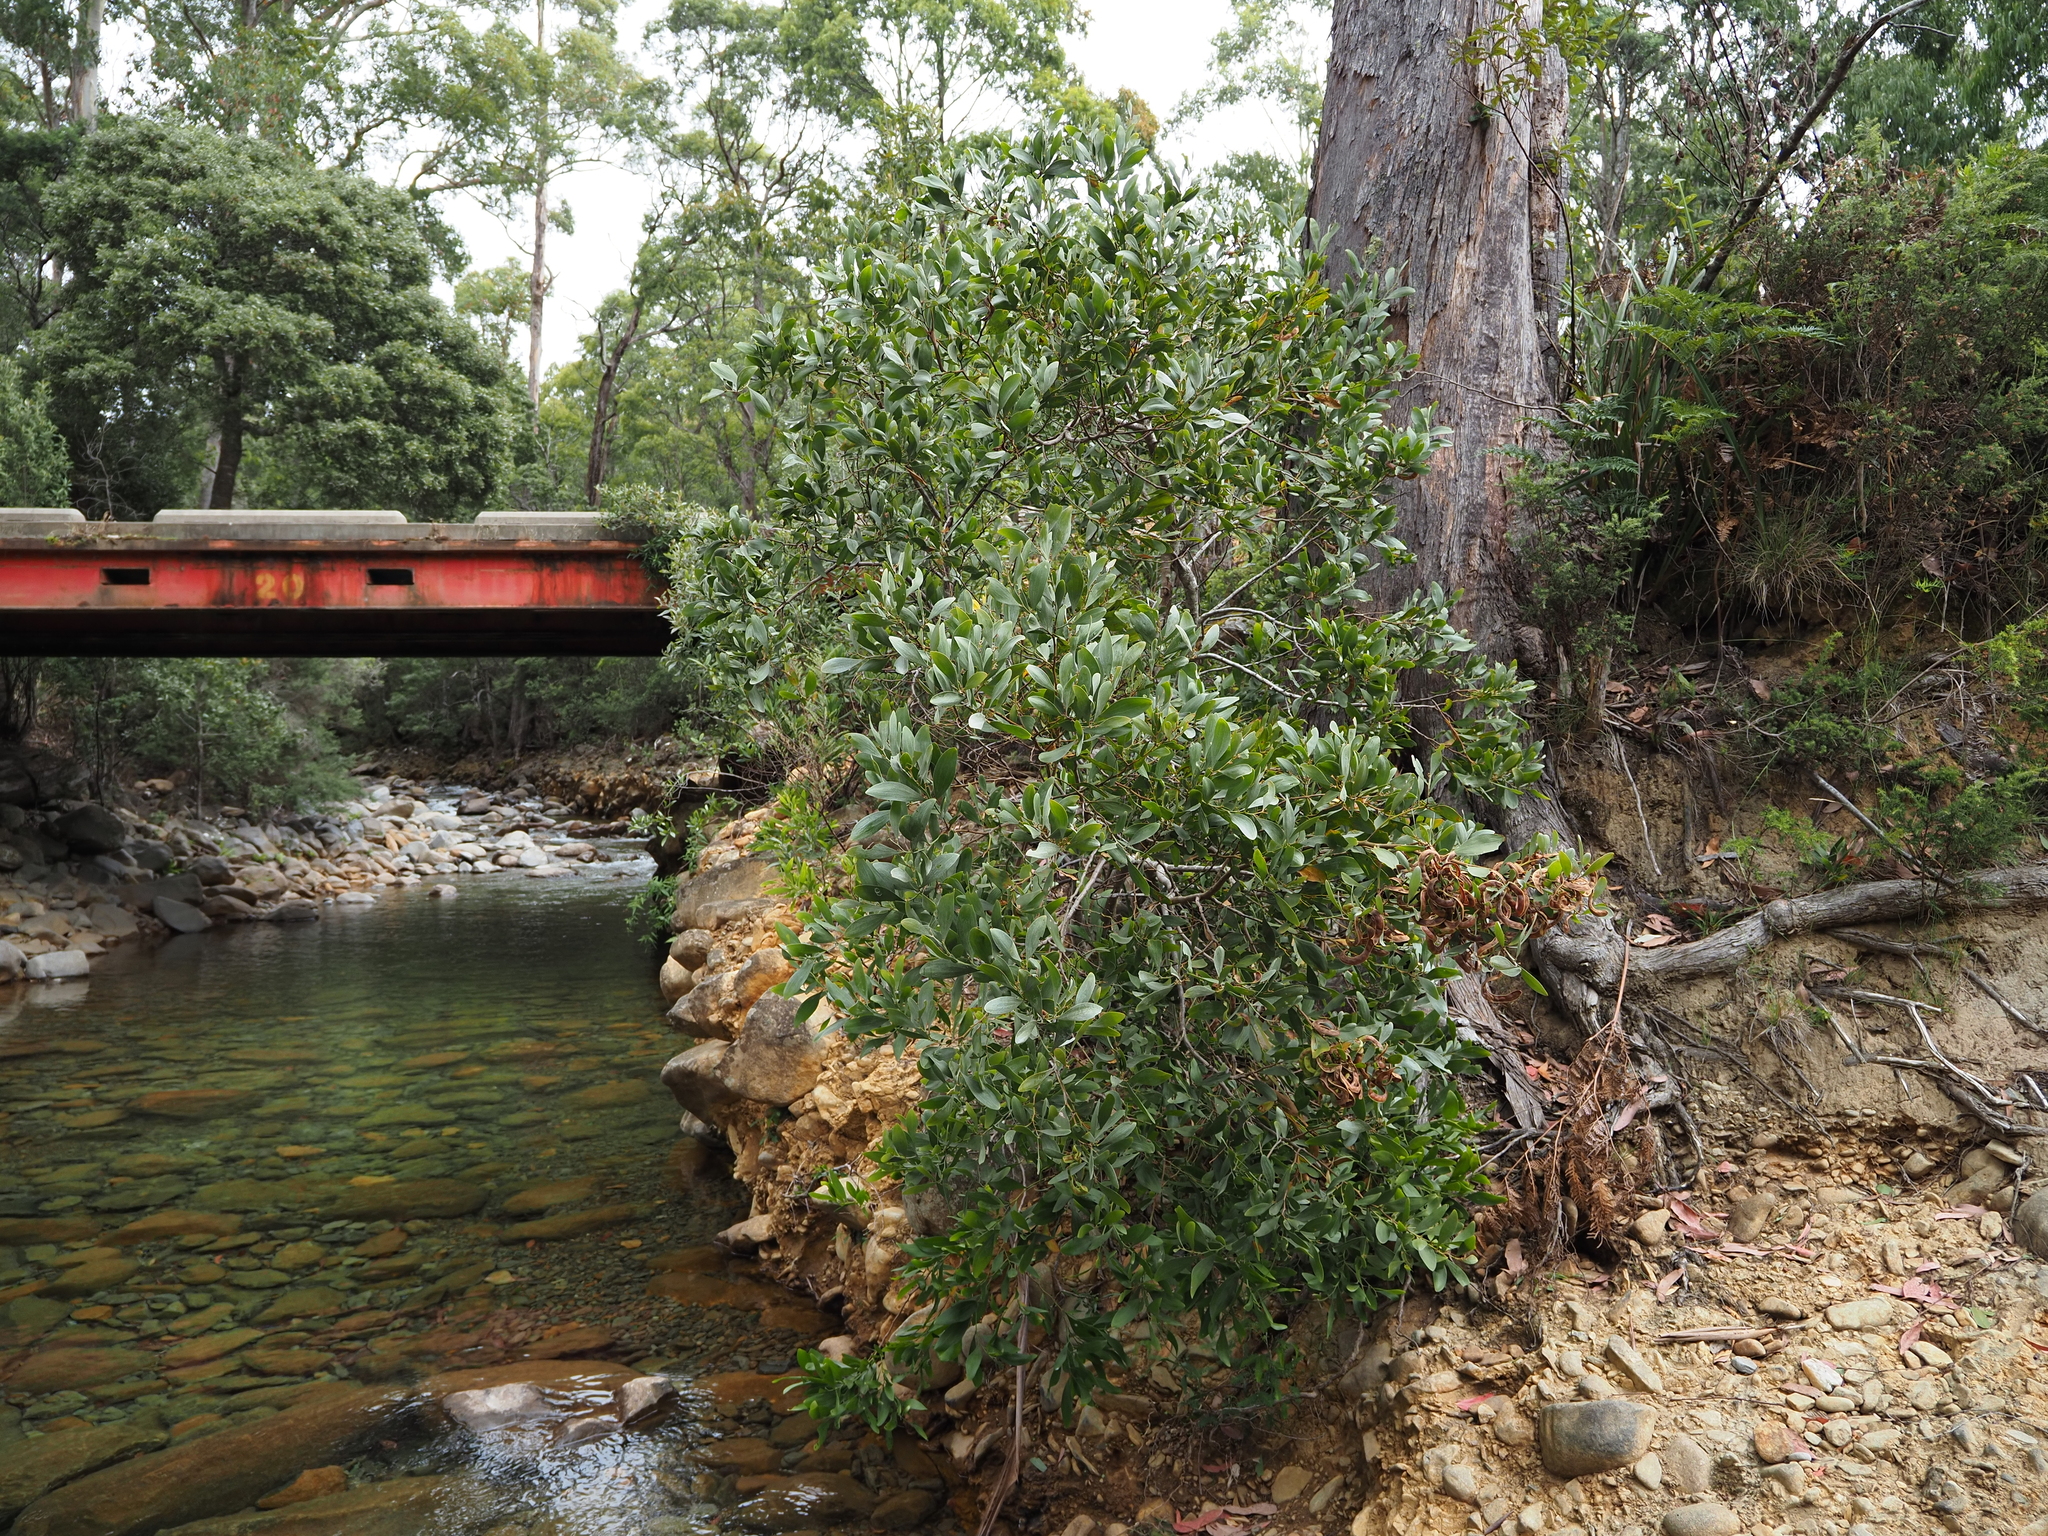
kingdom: Plantae
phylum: Tracheophyta
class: Magnoliopsida
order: Fabales
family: Fabaceae
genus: Acacia
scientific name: Acacia melanoxylon
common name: Blackwood
